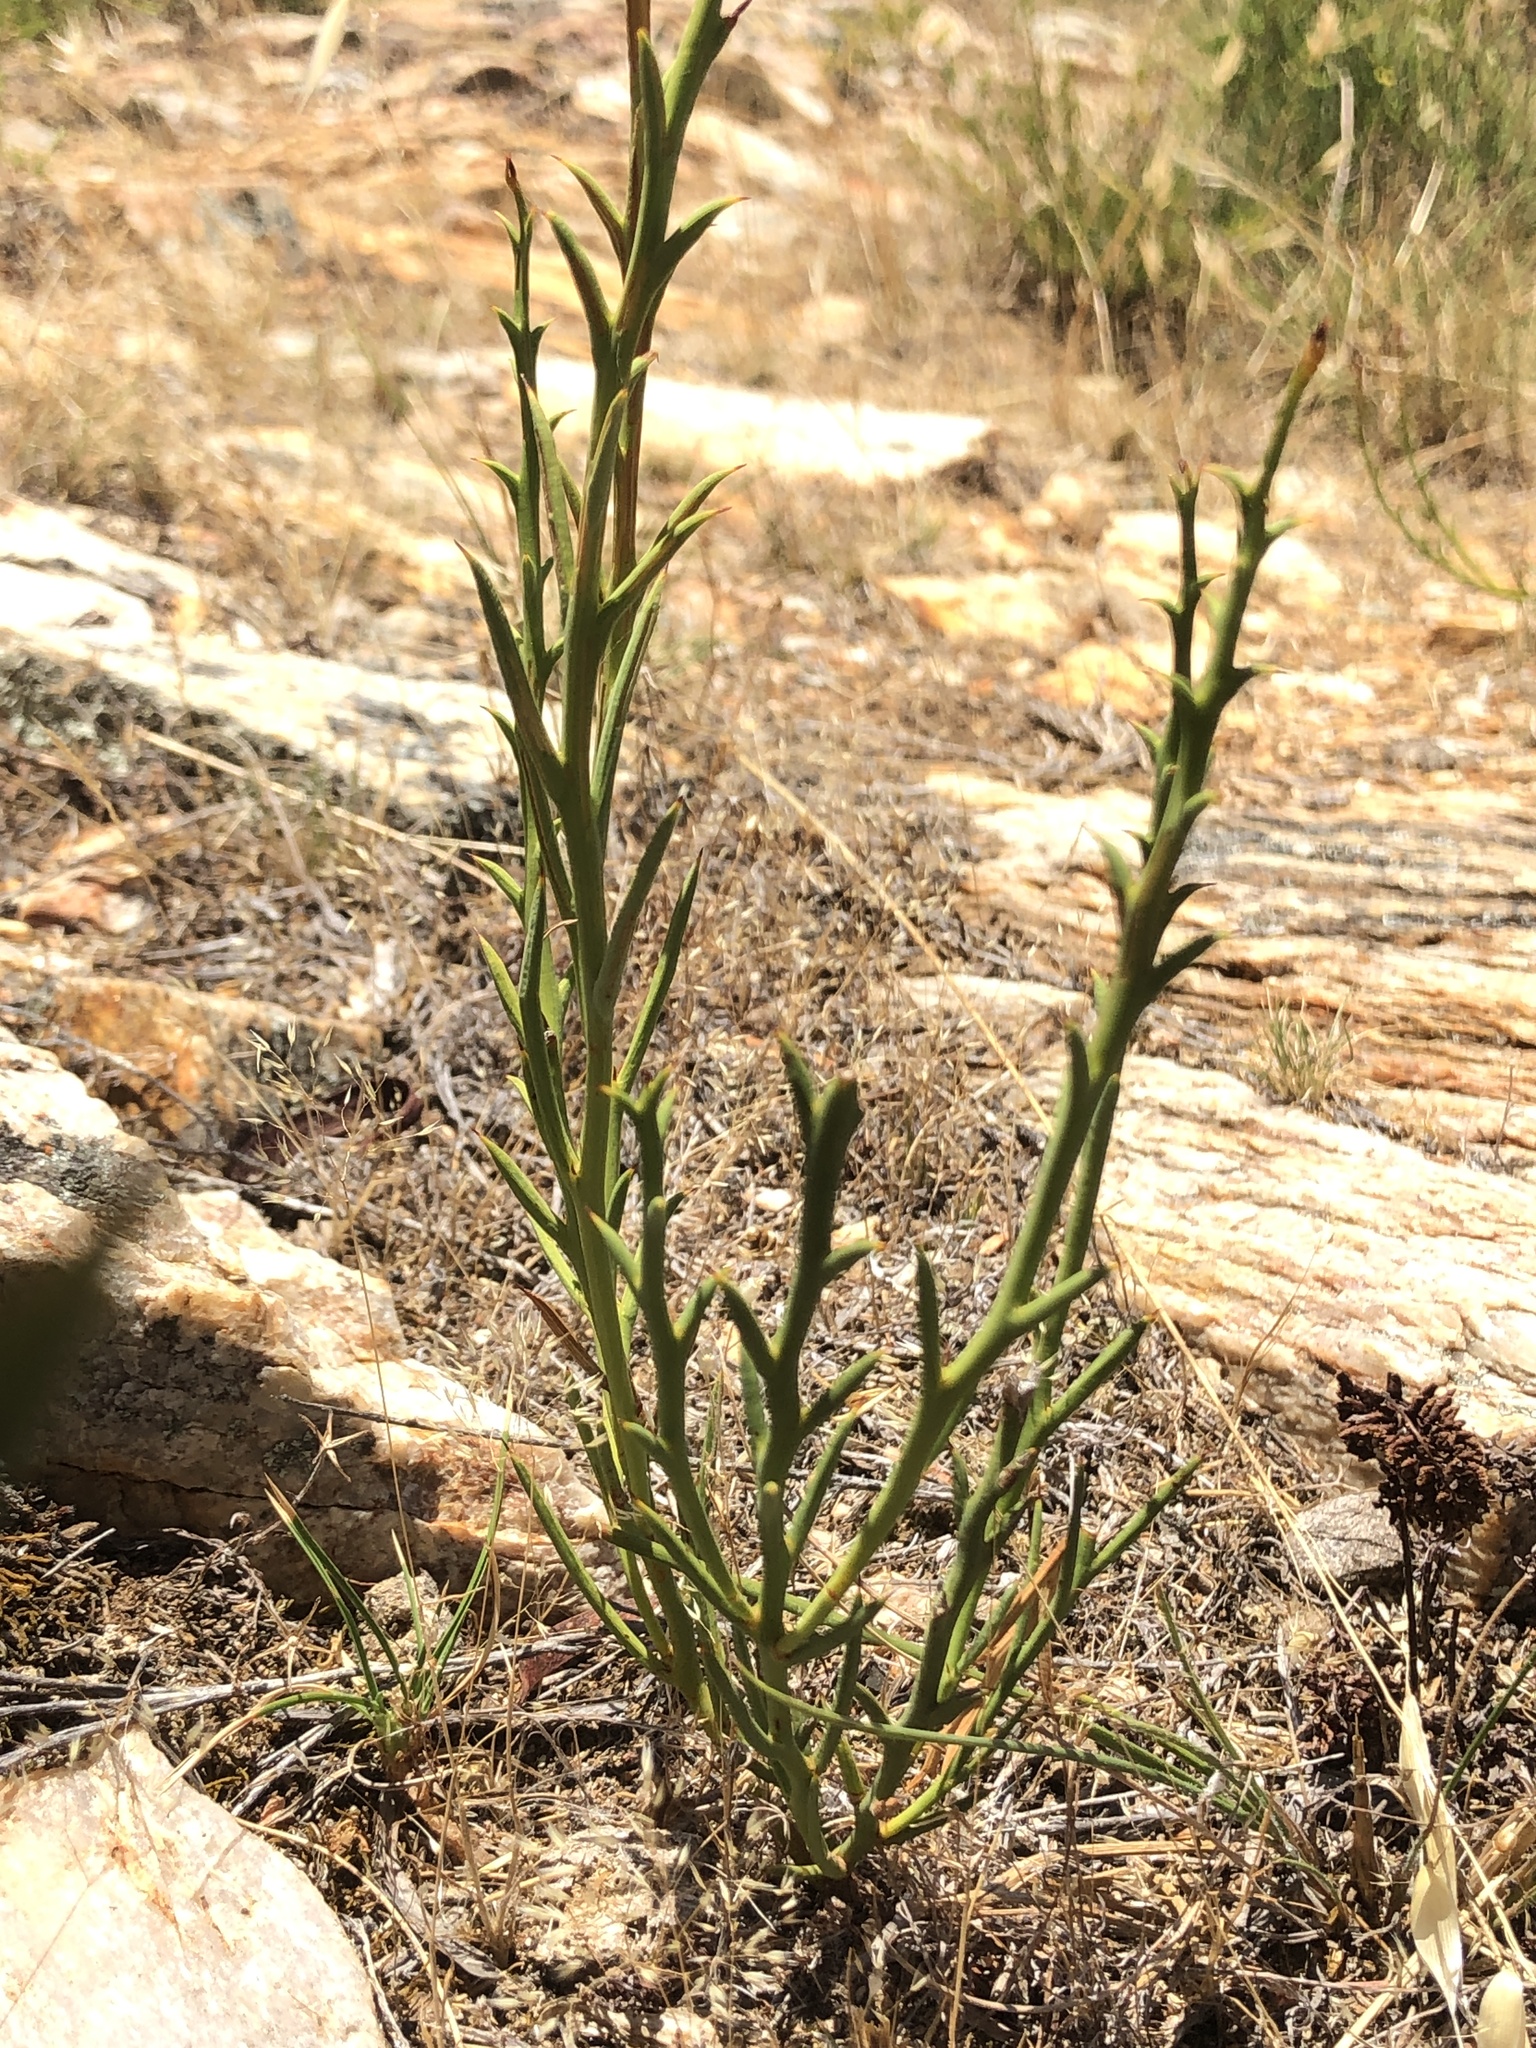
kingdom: Plantae
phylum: Tracheophyta
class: Magnoliopsida
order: Fabales
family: Fabaceae
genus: Acacia
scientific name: Acacia continua
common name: Thorn wattle
